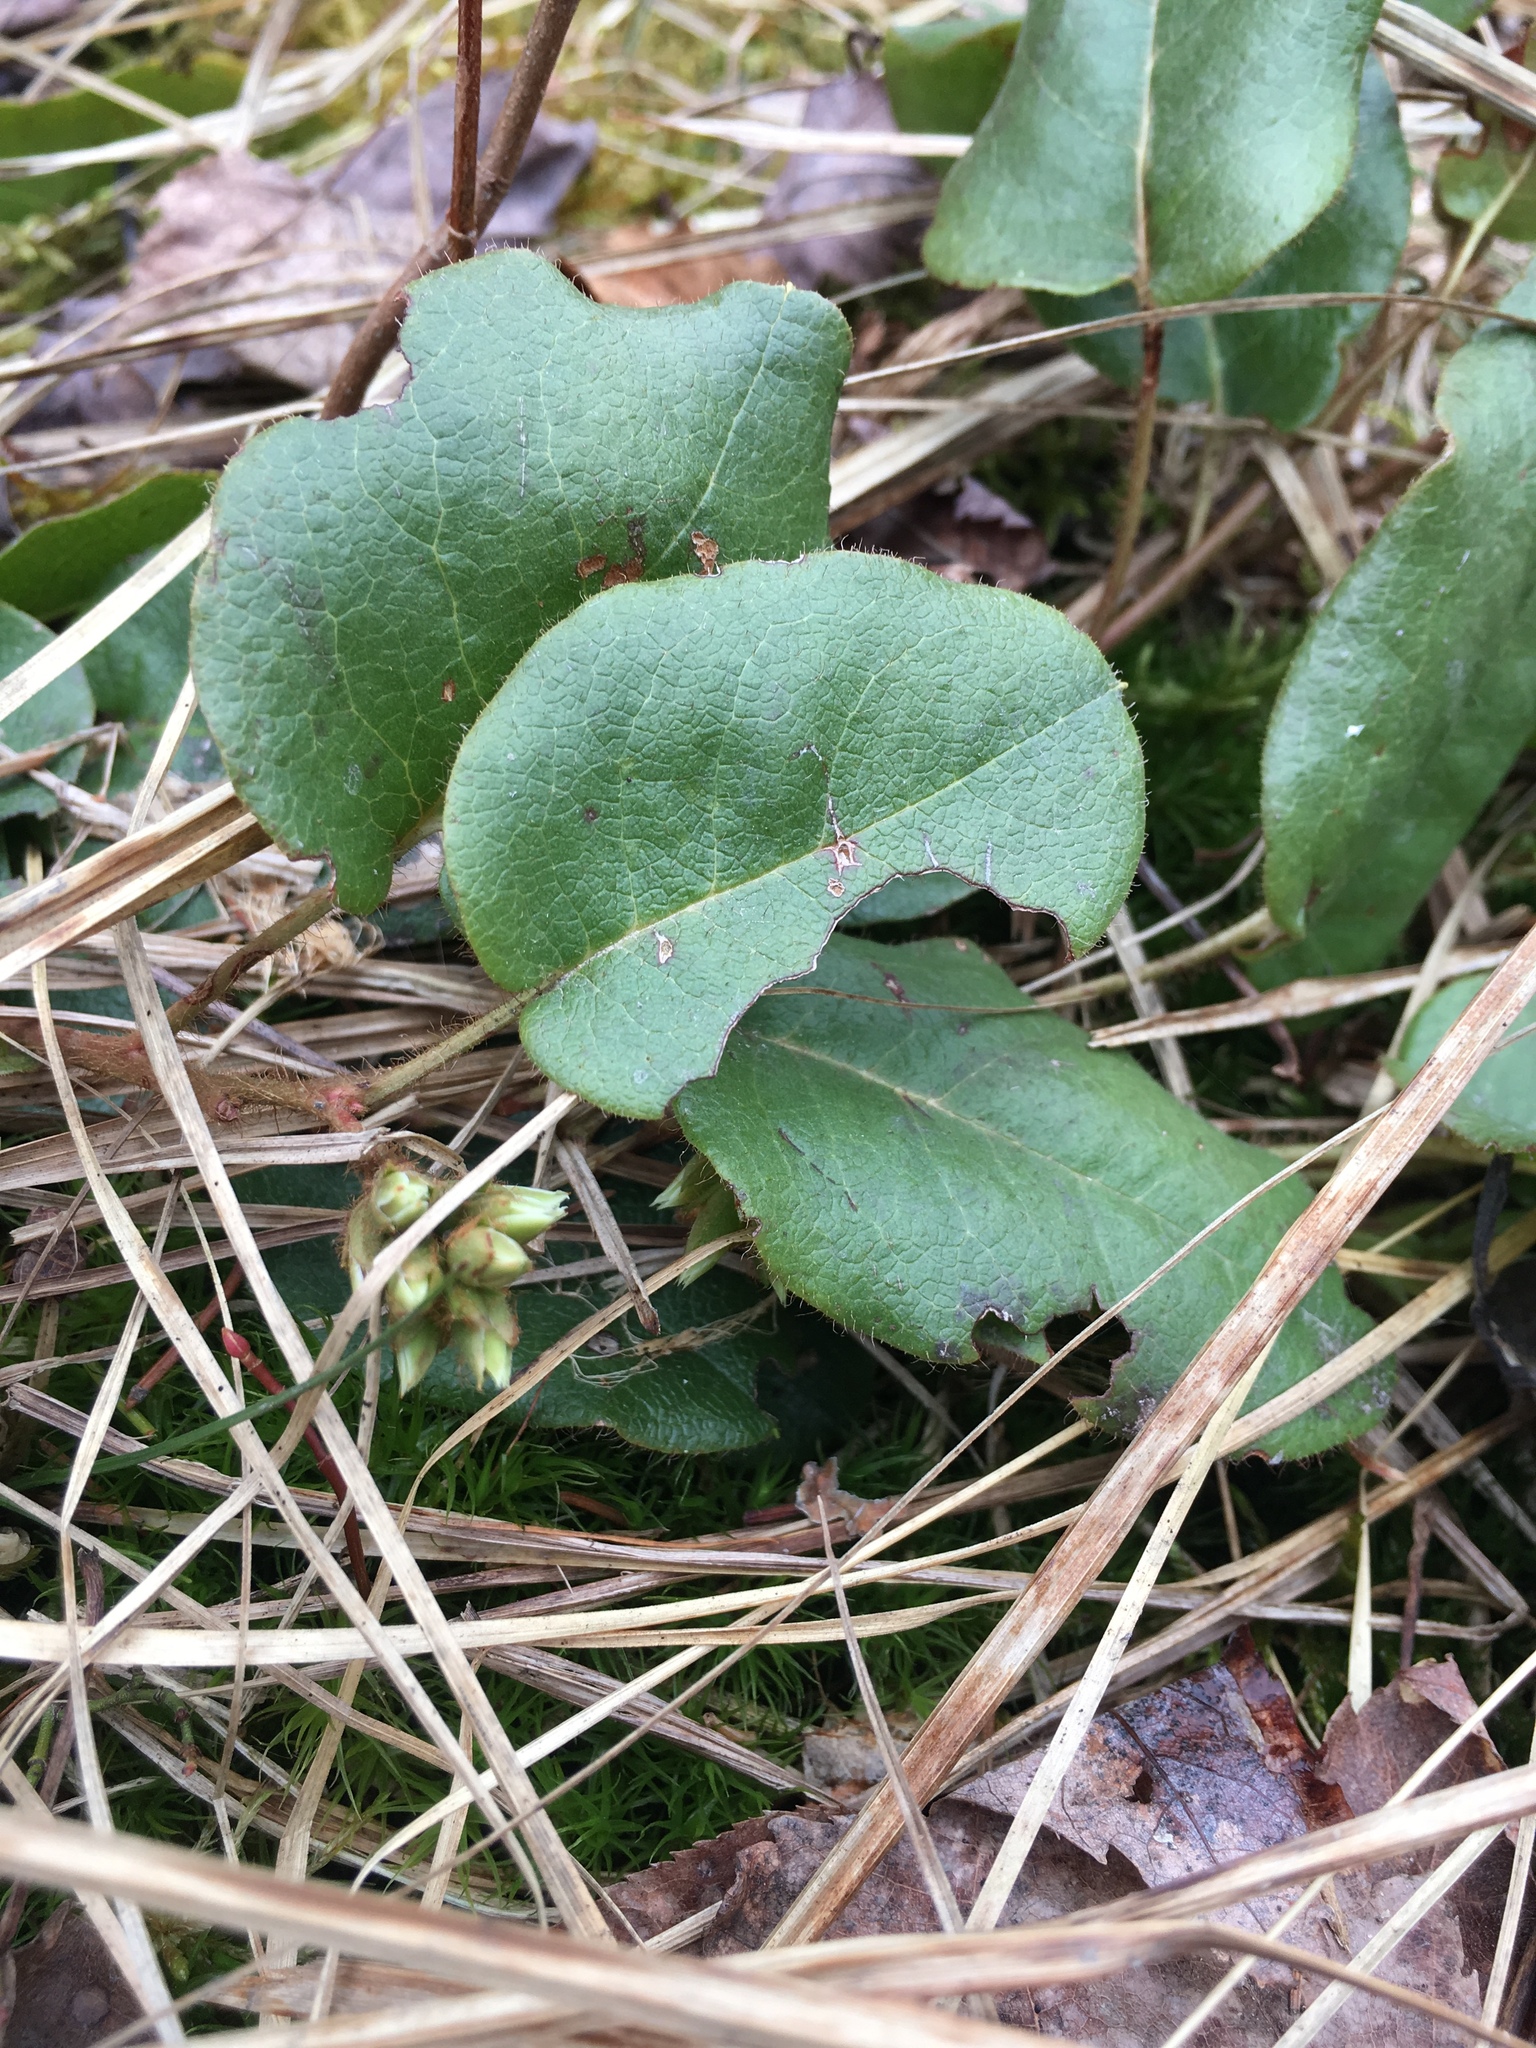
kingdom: Plantae
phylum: Tracheophyta
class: Magnoliopsida
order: Ericales
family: Ericaceae
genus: Epigaea
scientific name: Epigaea repens
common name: Gravelroot
